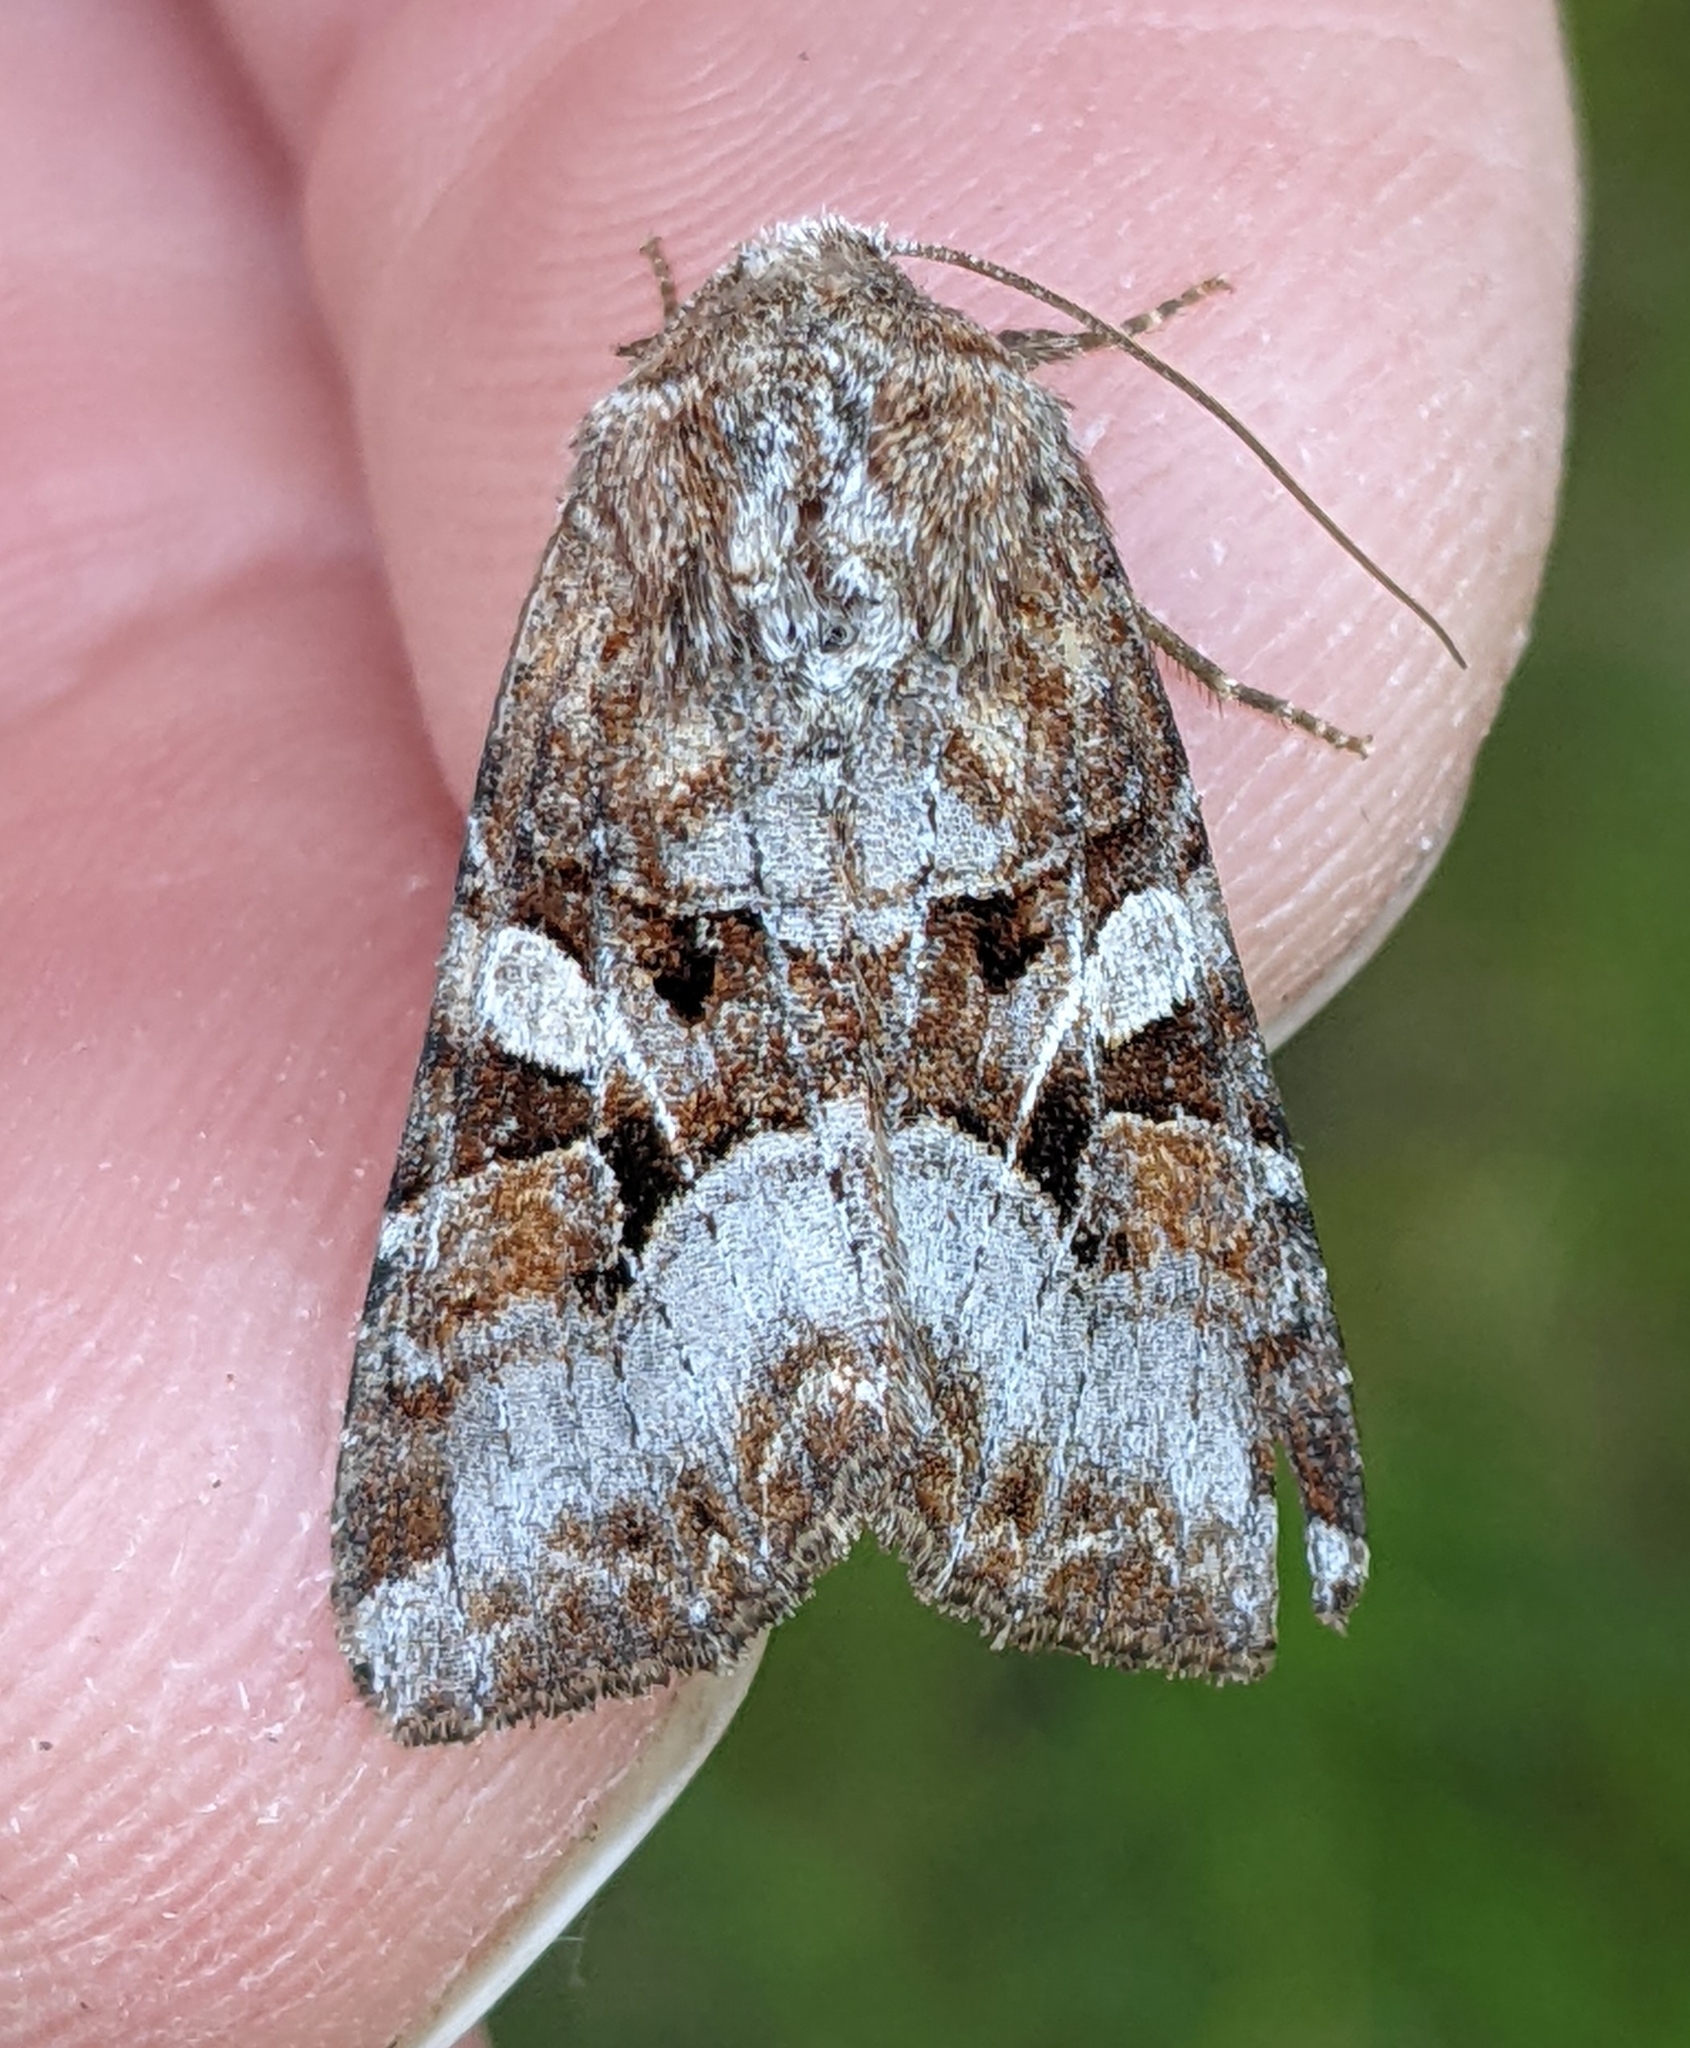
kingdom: Animalia
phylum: Arthropoda
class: Insecta
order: Lepidoptera
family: Noctuidae
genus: Trichordestra
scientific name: Trichordestra tacoma
